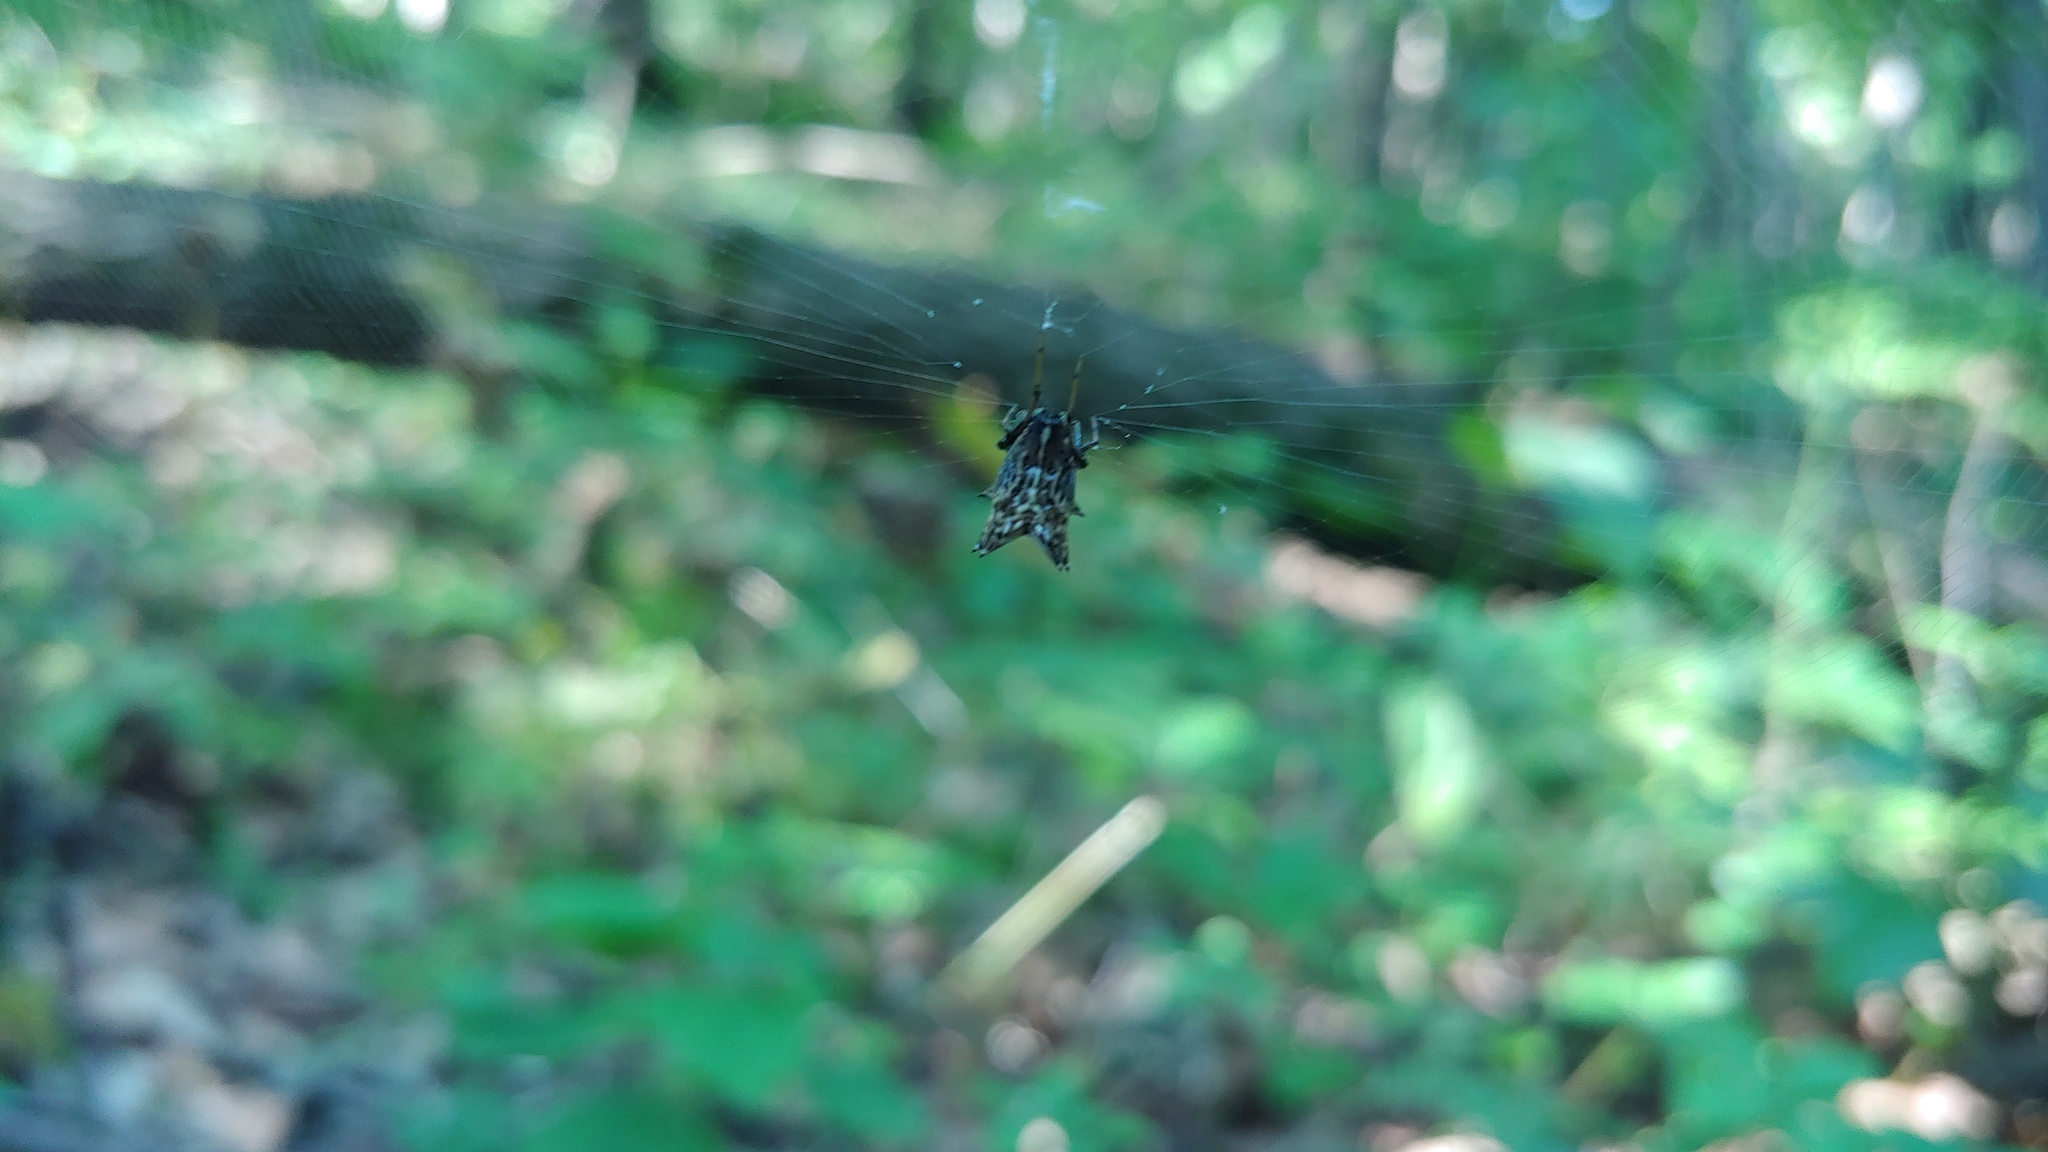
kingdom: Animalia
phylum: Arthropoda
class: Arachnida
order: Araneae
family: Araneidae
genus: Micrathena
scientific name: Micrathena gracilis
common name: Orb weavers
